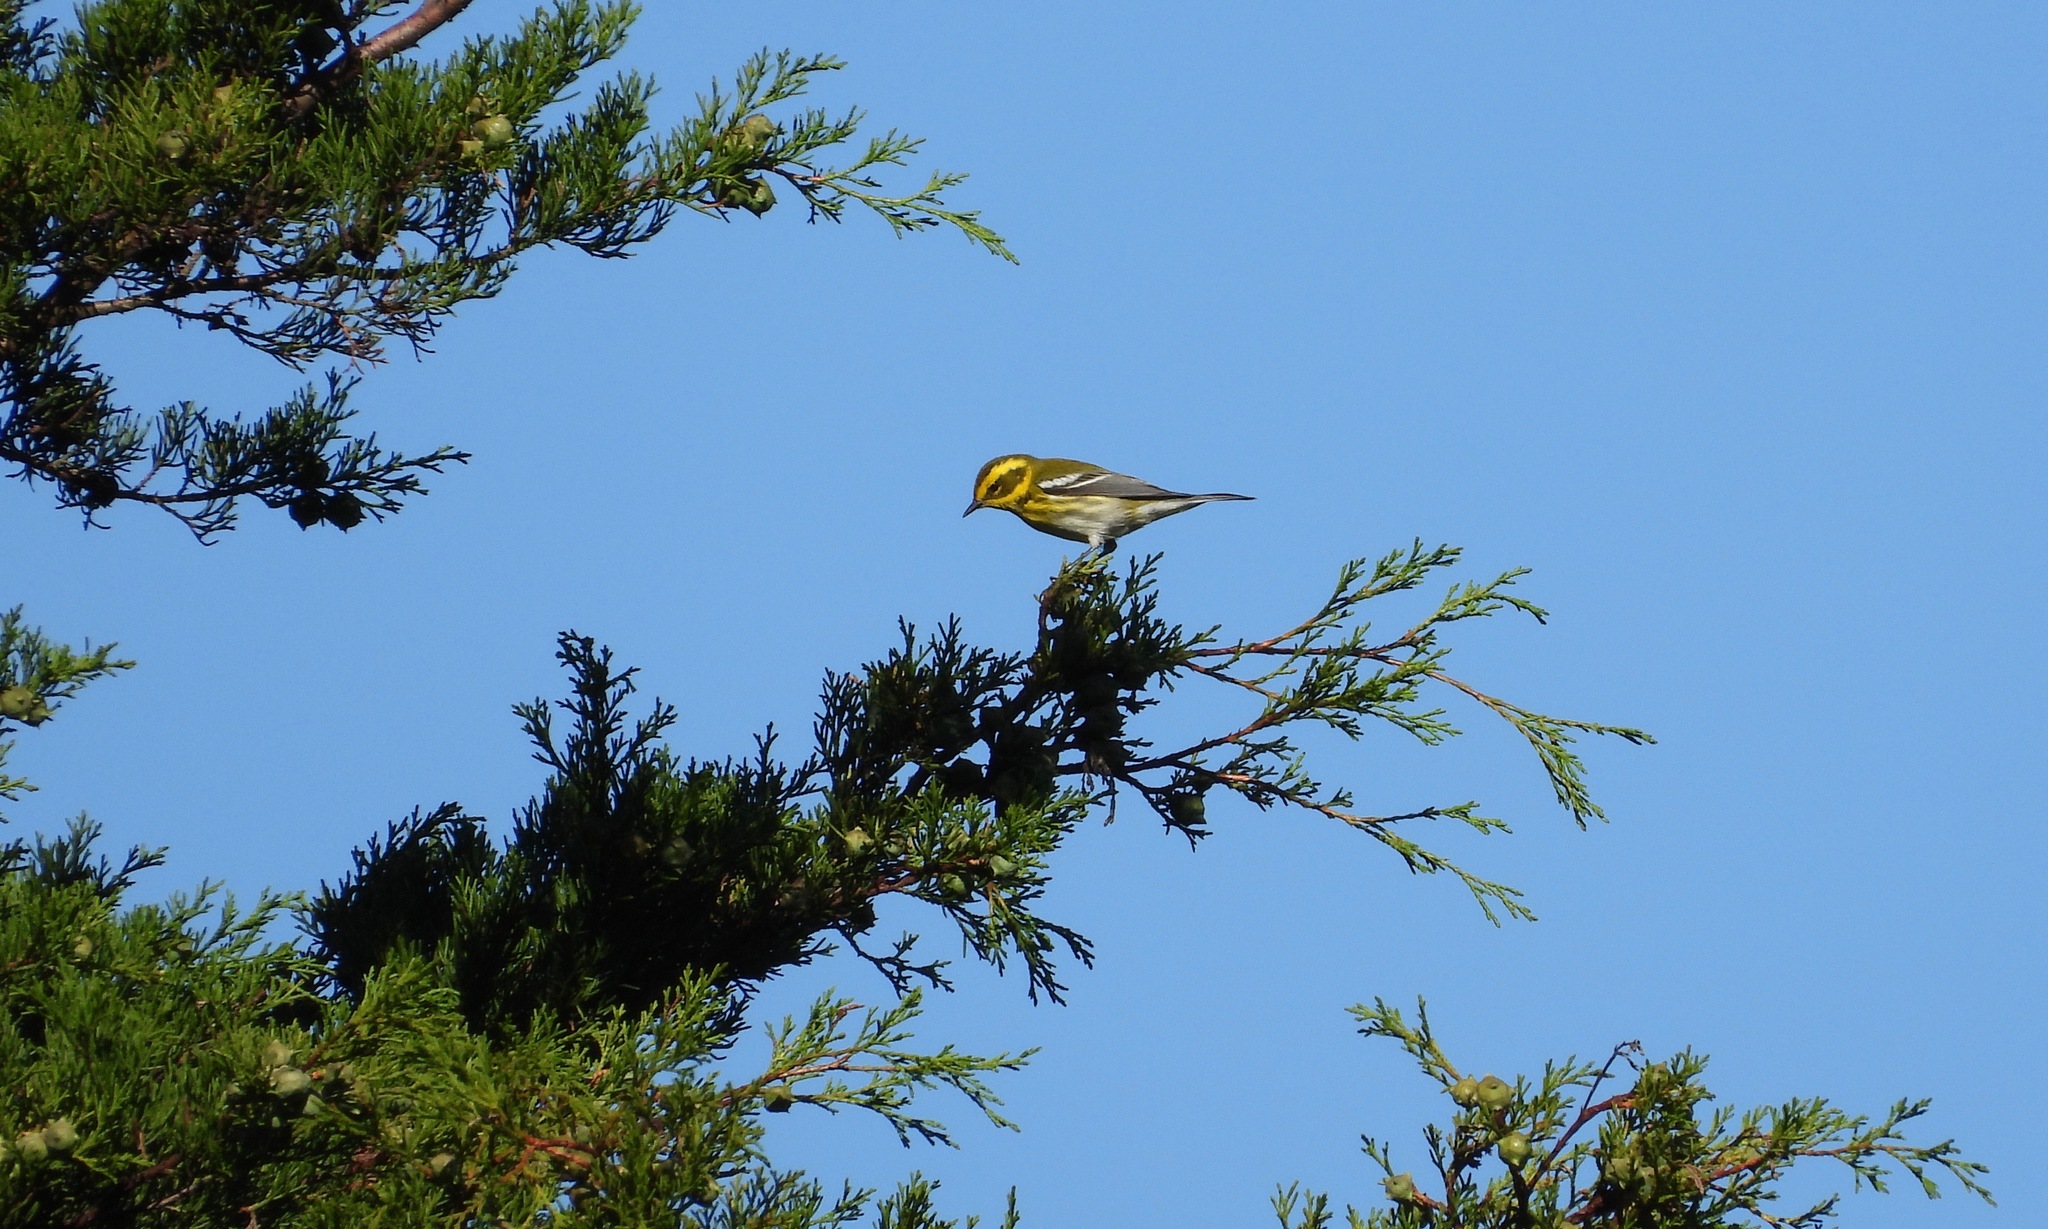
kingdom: Animalia
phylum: Chordata
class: Aves
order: Passeriformes
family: Parulidae
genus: Setophaga
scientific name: Setophaga townsendi
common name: Townsend's warbler
